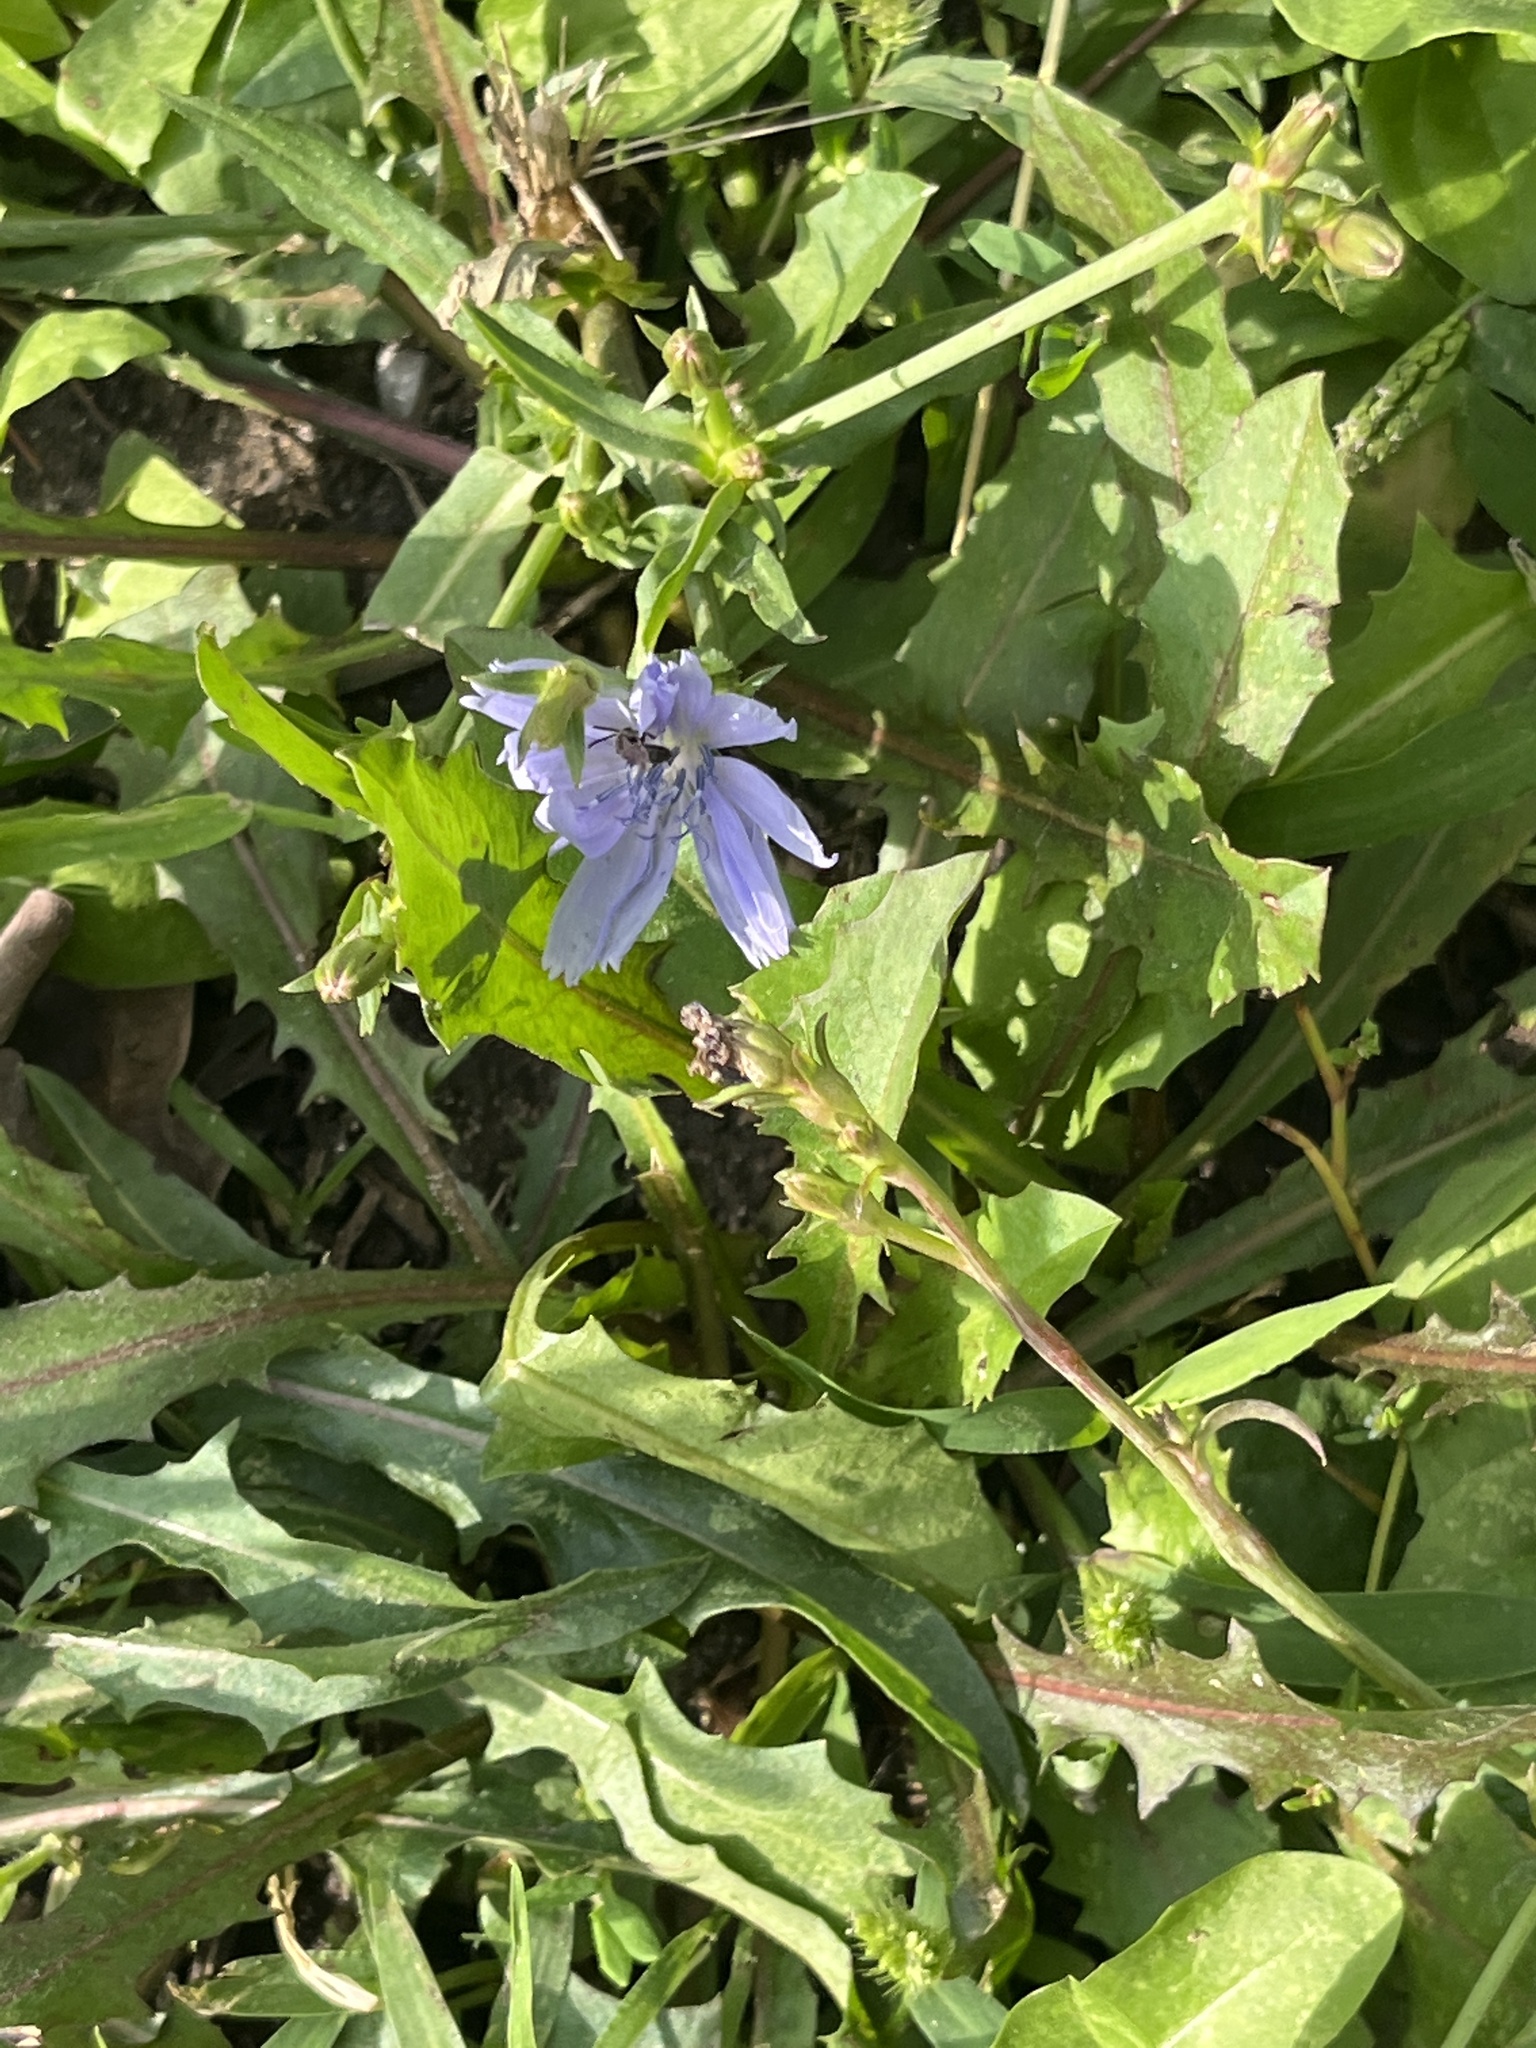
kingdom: Plantae
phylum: Tracheophyta
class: Magnoliopsida
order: Asterales
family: Asteraceae
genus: Cichorium
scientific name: Cichorium intybus
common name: Chicory
